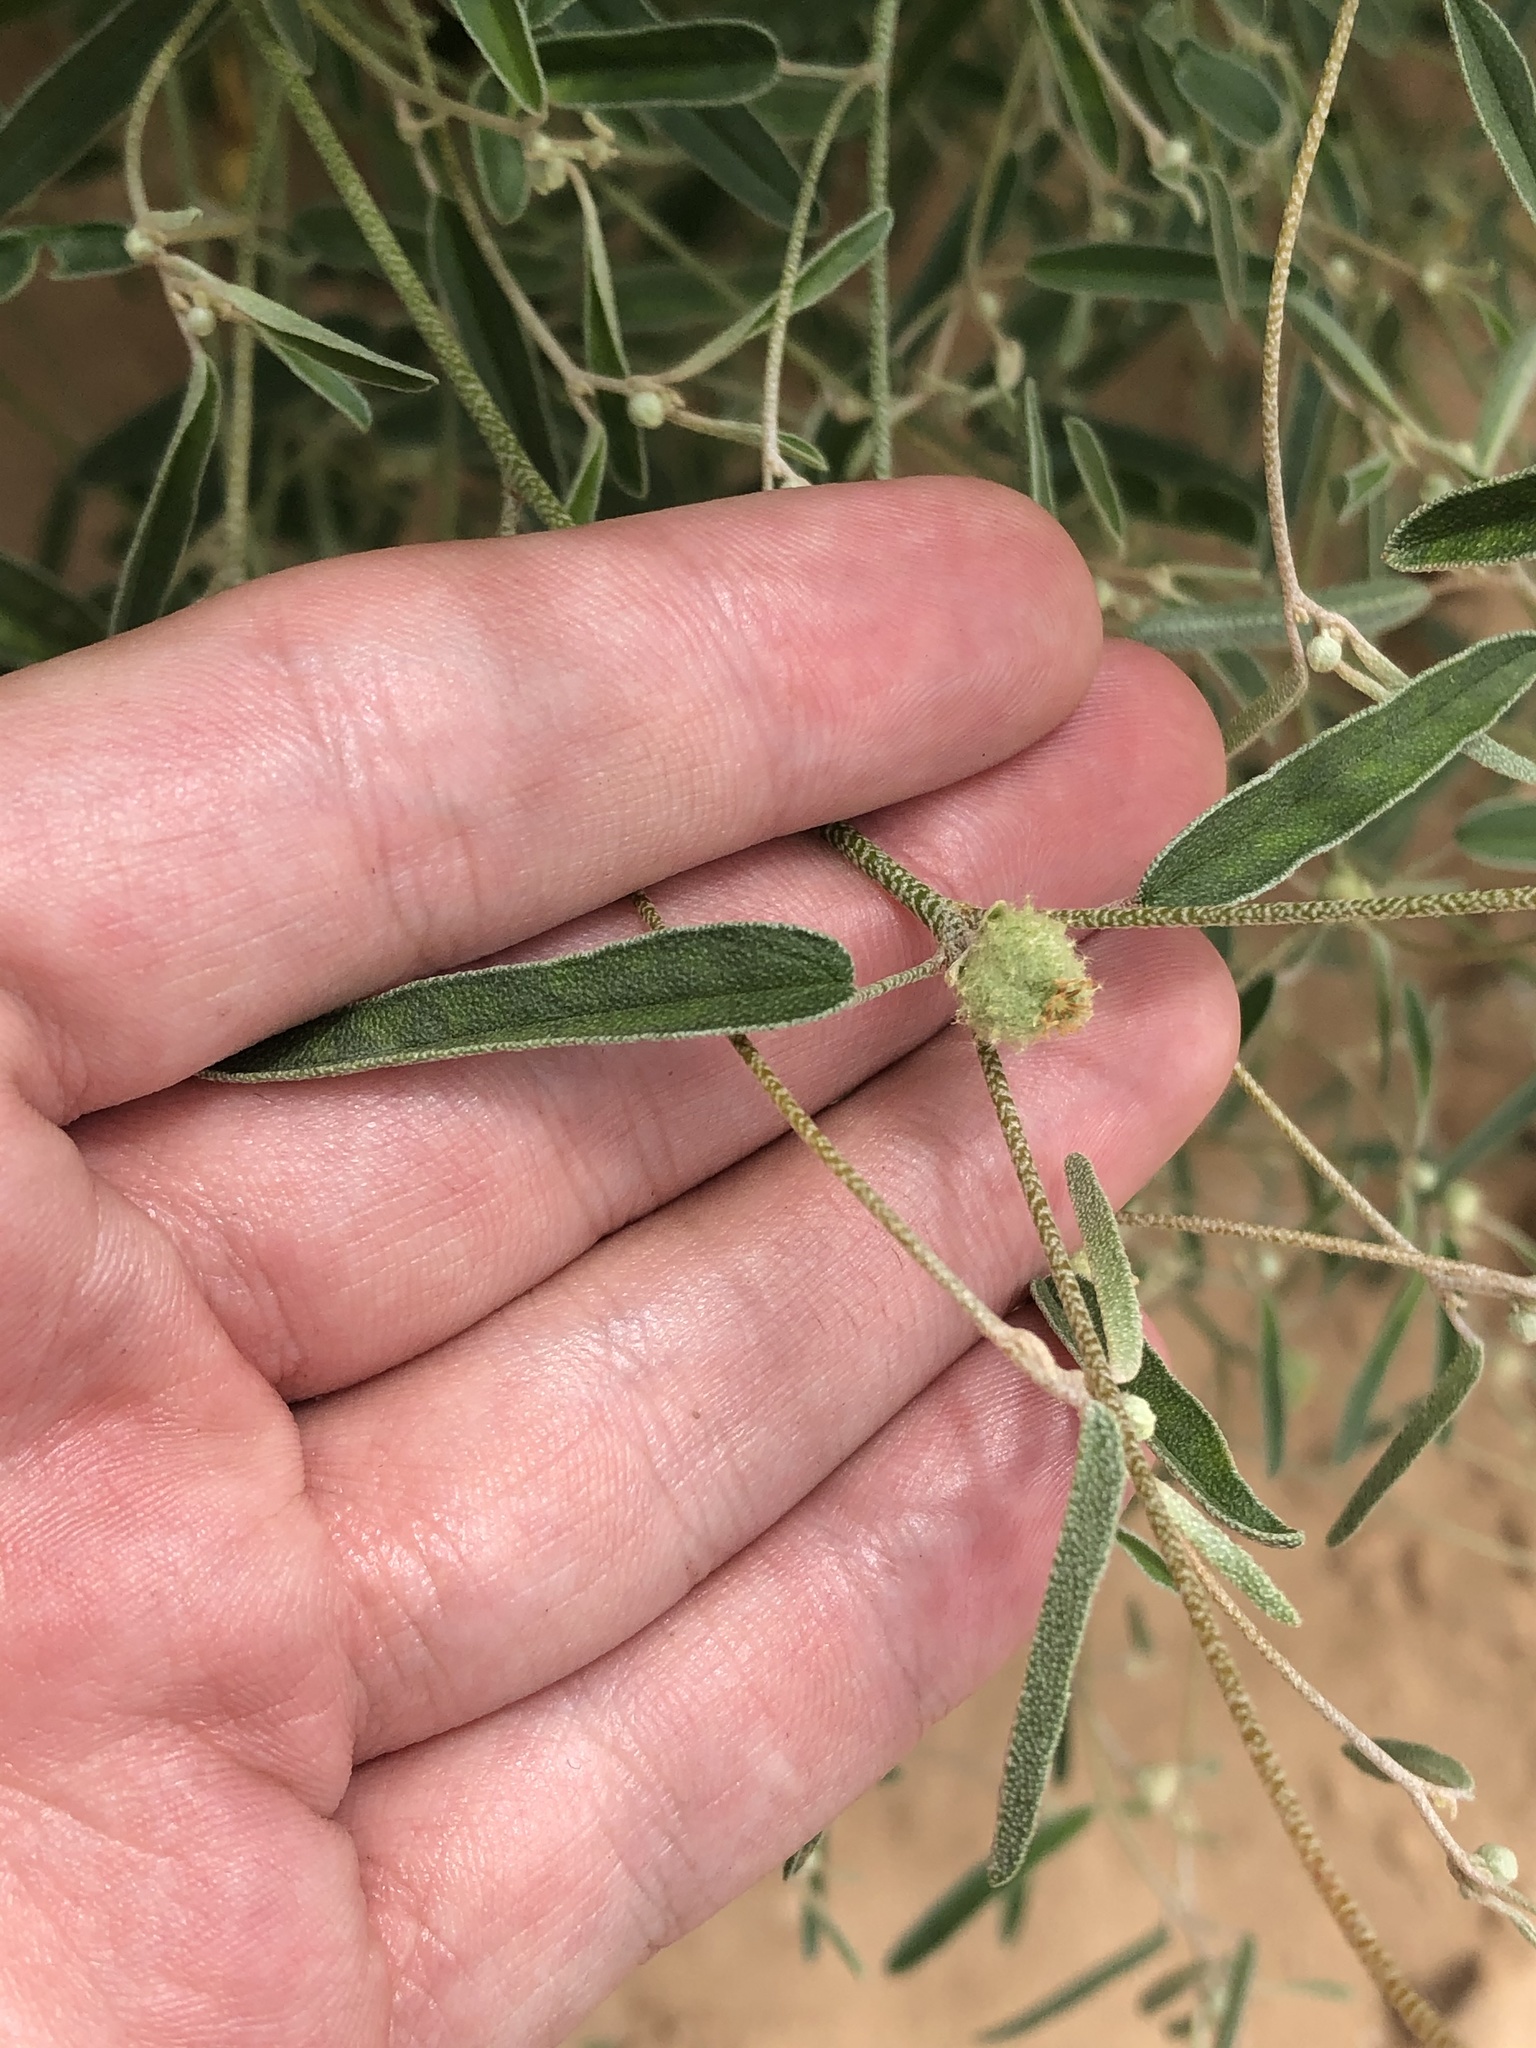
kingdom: Plantae
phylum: Tracheophyta
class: Magnoliopsida
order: Malpighiales
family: Euphorbiaceae
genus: Croton
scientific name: Croton texensis
